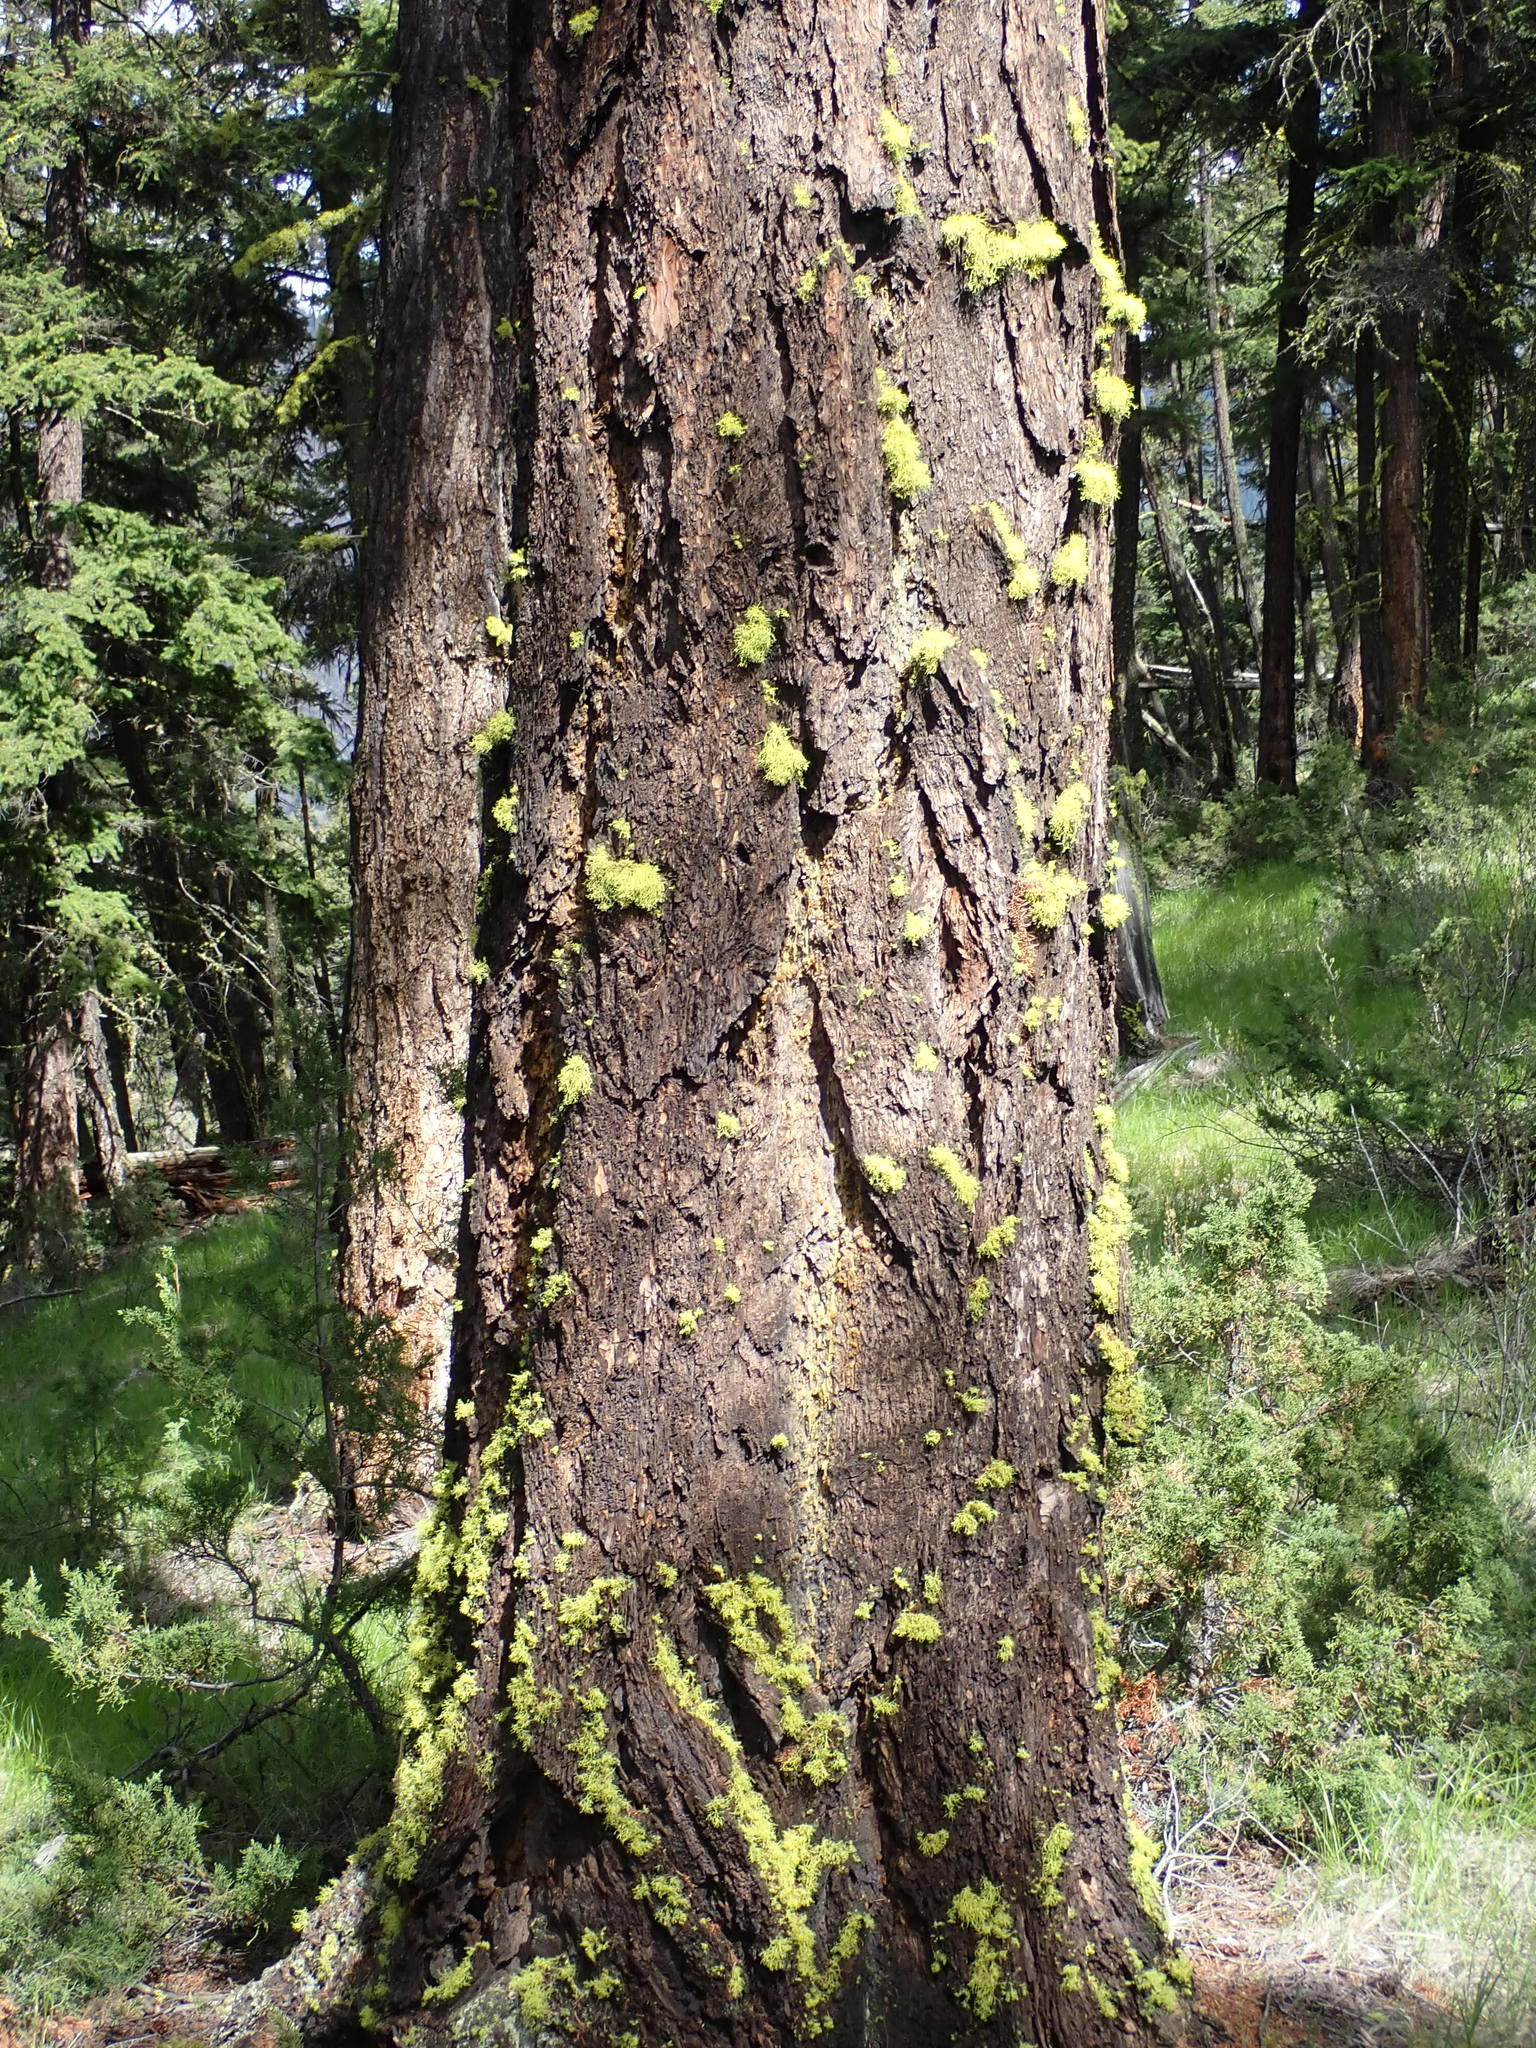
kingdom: Plantae
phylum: Tracheophyta
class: Pinopsida
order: Pinales
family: Pinaceae
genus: Pseudotsuga
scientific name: Pseudotsuga menziesii
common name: Douglas fir
